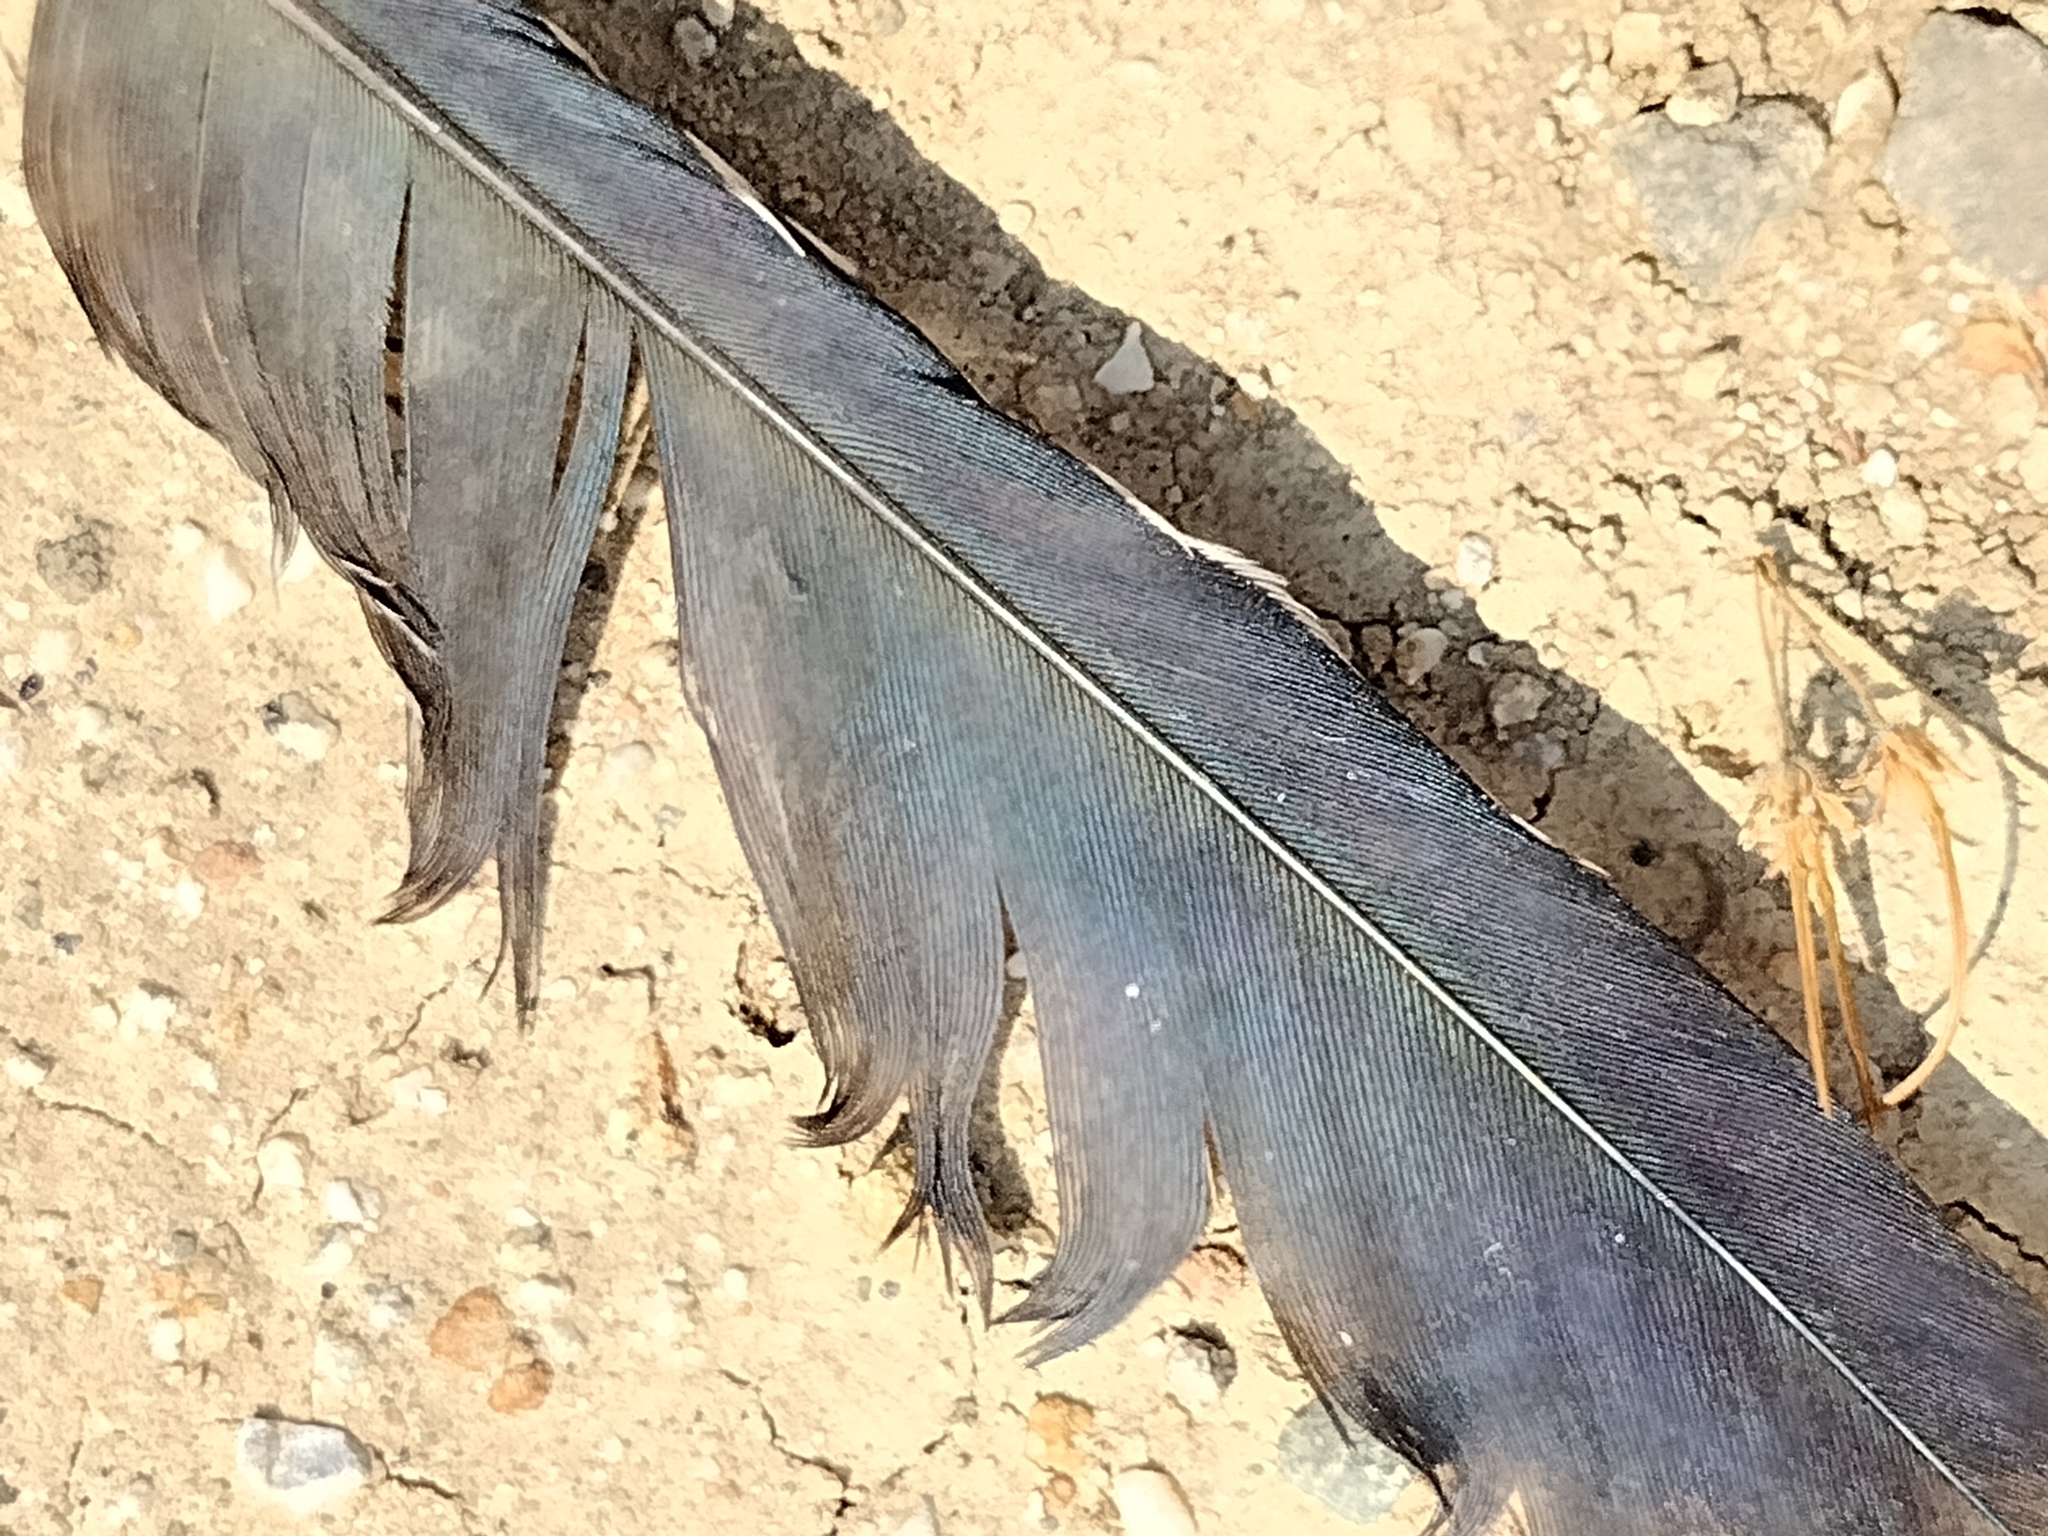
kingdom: Animalia
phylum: Chordata
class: Aves
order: Cuculiformes
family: Cuculidae
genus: Geococcyx
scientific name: Geococcyx californianus
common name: Greater roadrunner
